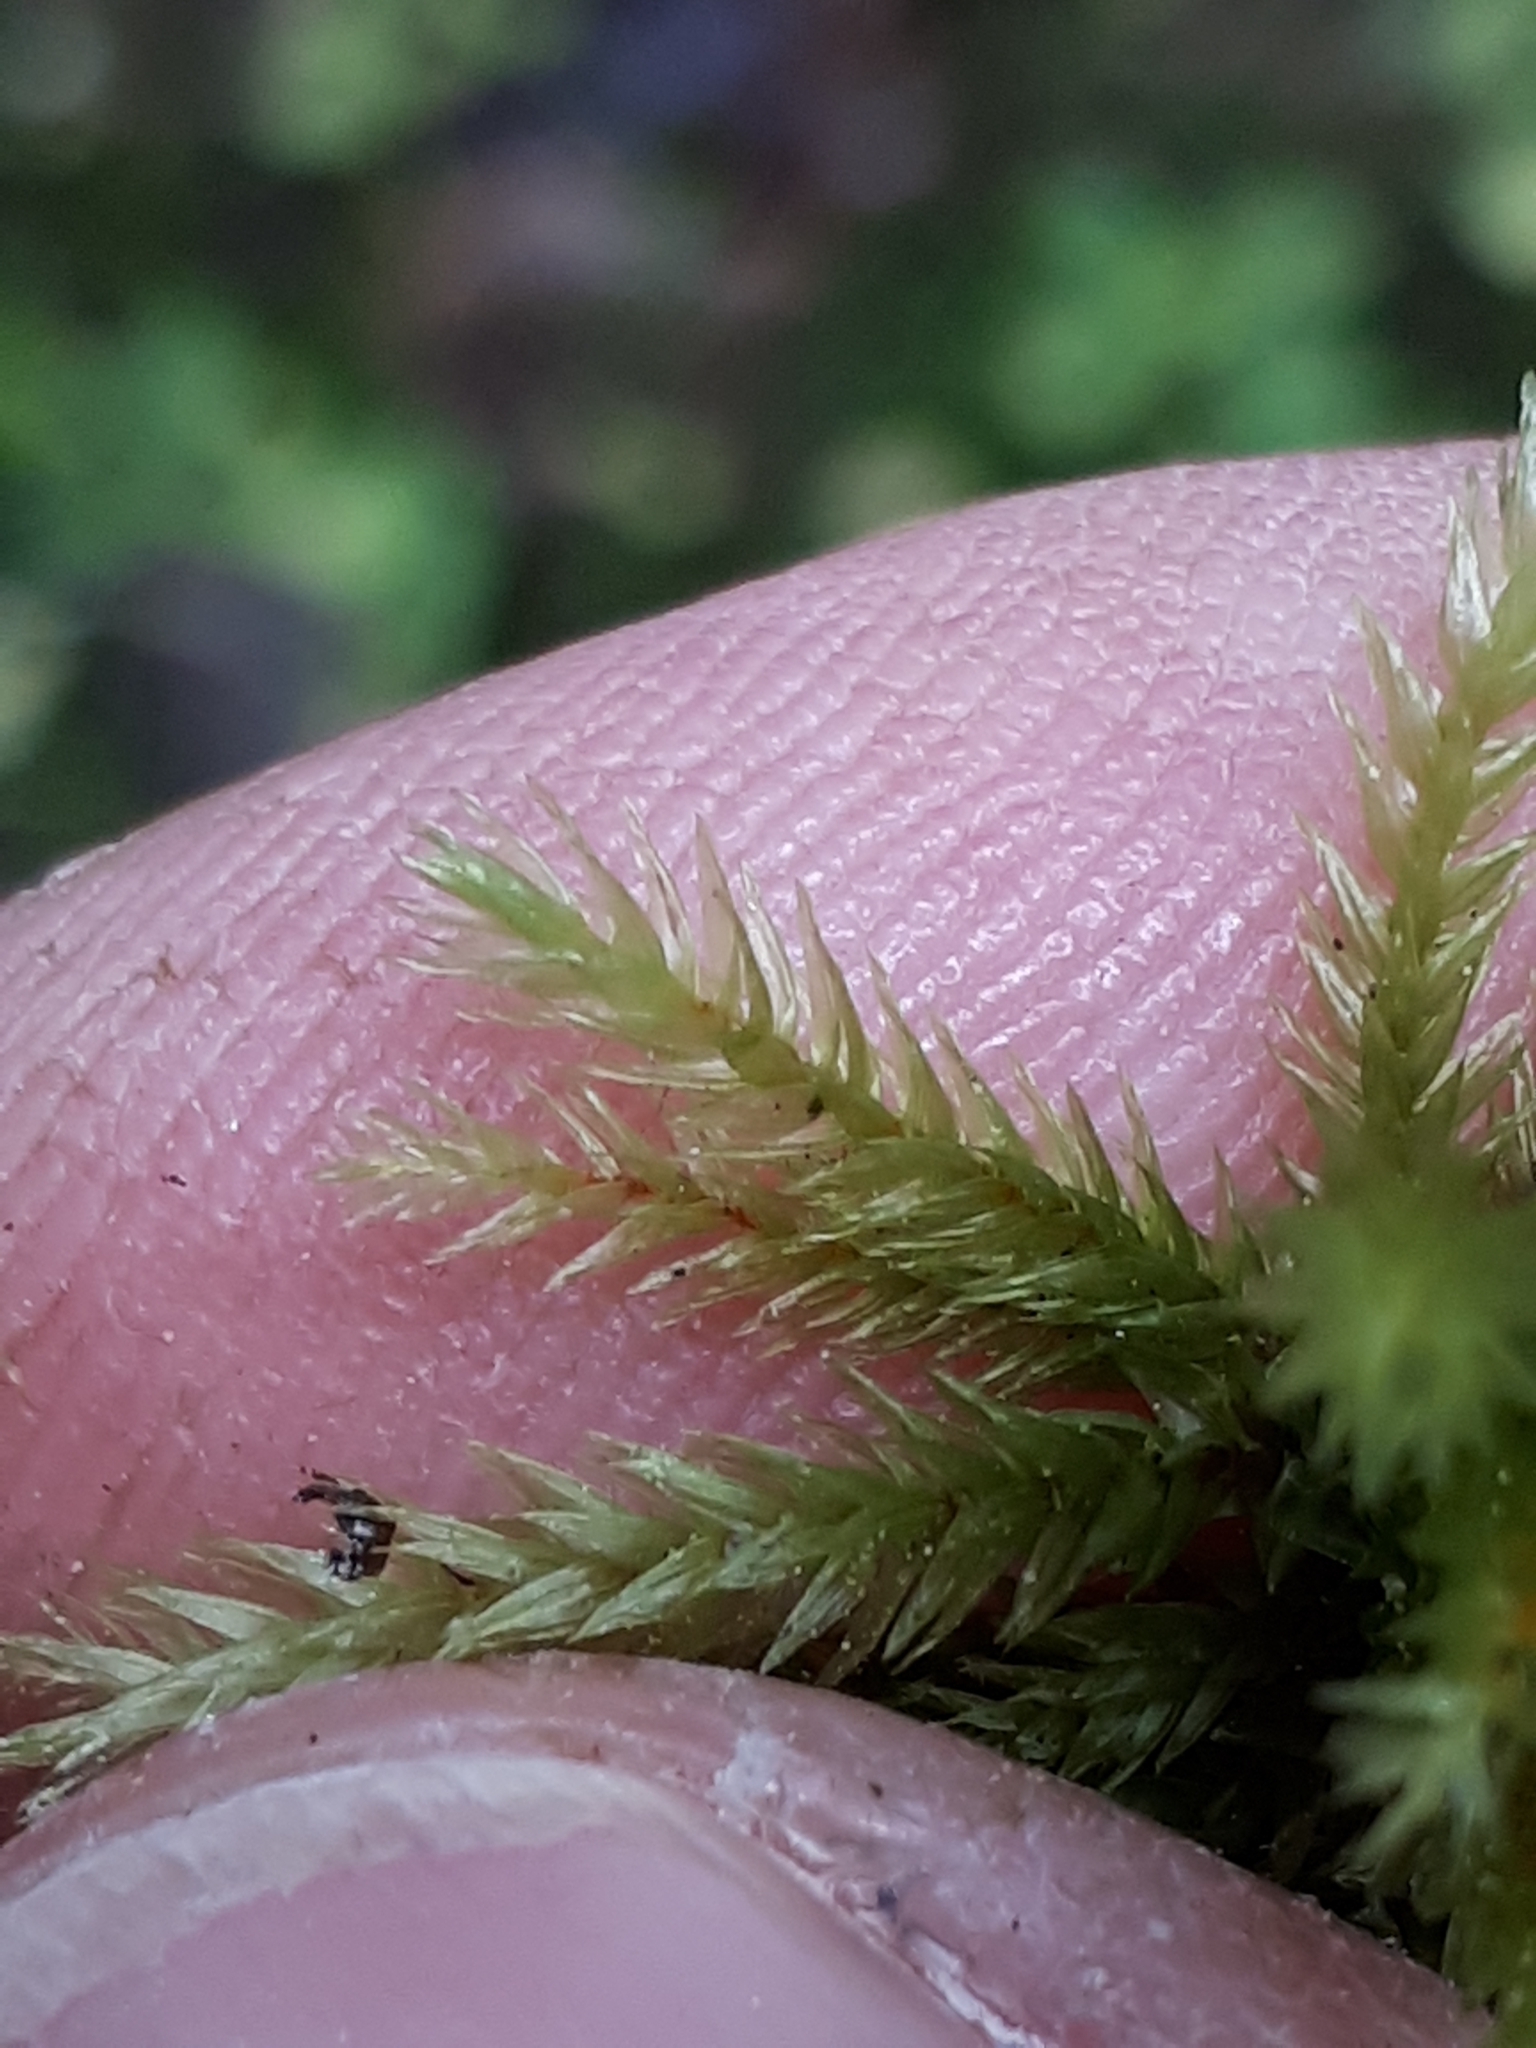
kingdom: Plantae
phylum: Bryophyta
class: Bryopsida
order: Hypnales
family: Climaciaceae
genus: Climacium
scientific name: Climacium dendroides
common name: Northern tree moss
